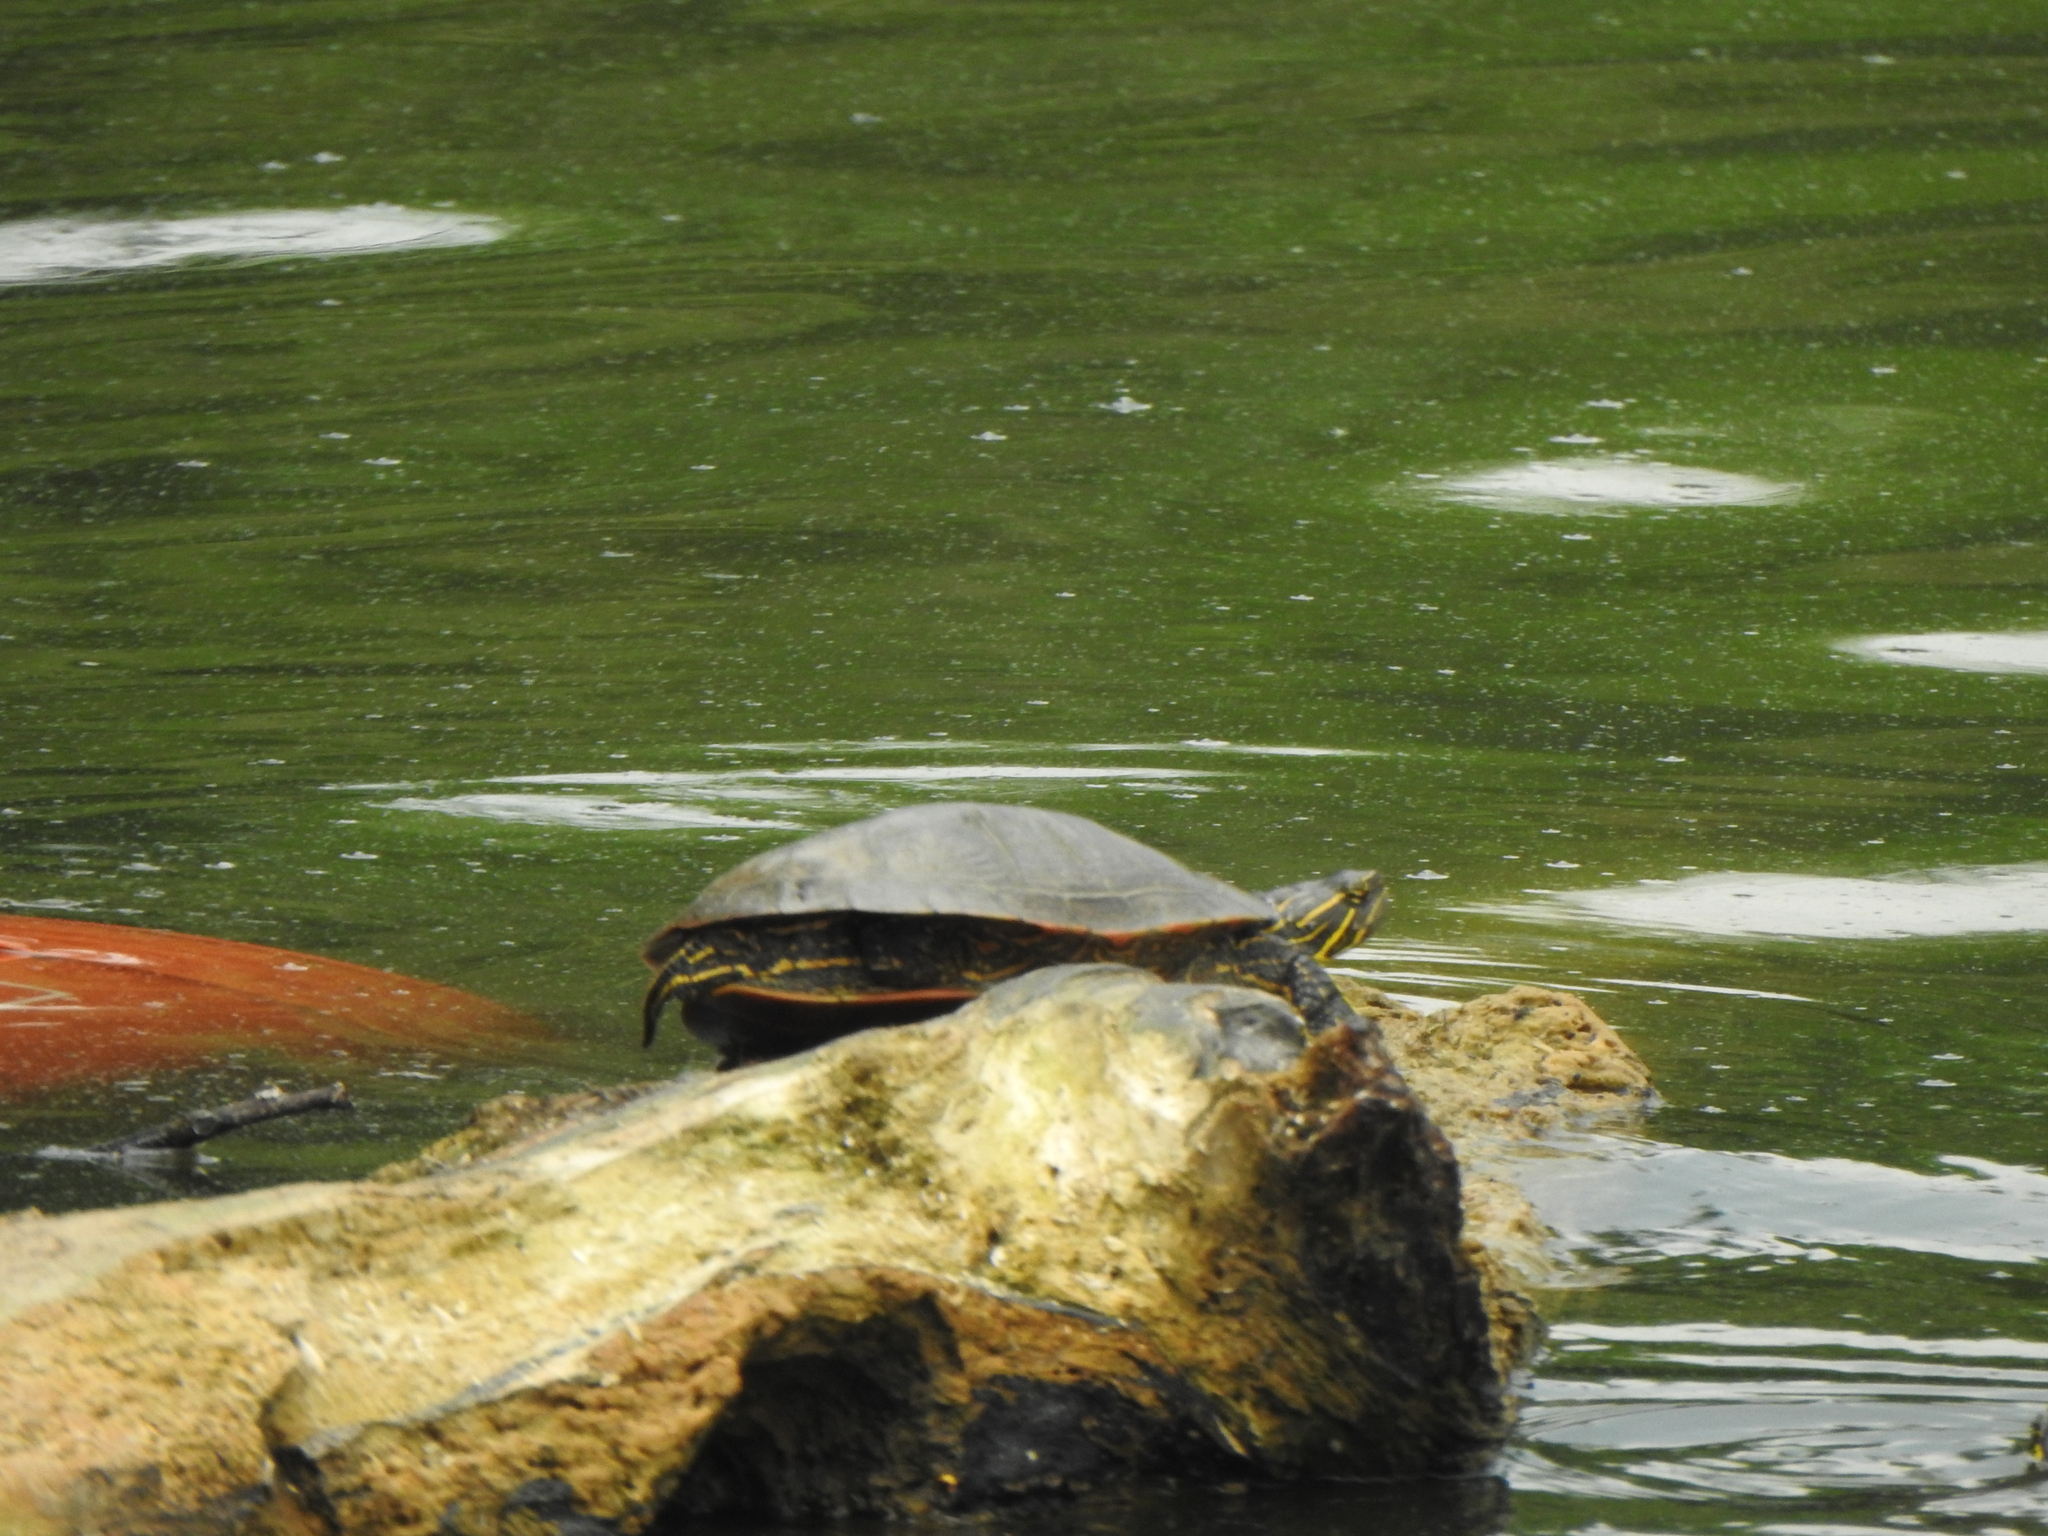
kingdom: Animalia
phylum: Chordata
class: Testudines
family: Emydidae
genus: Chrysemys
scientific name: Chrysemys picta
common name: Painted turtle
